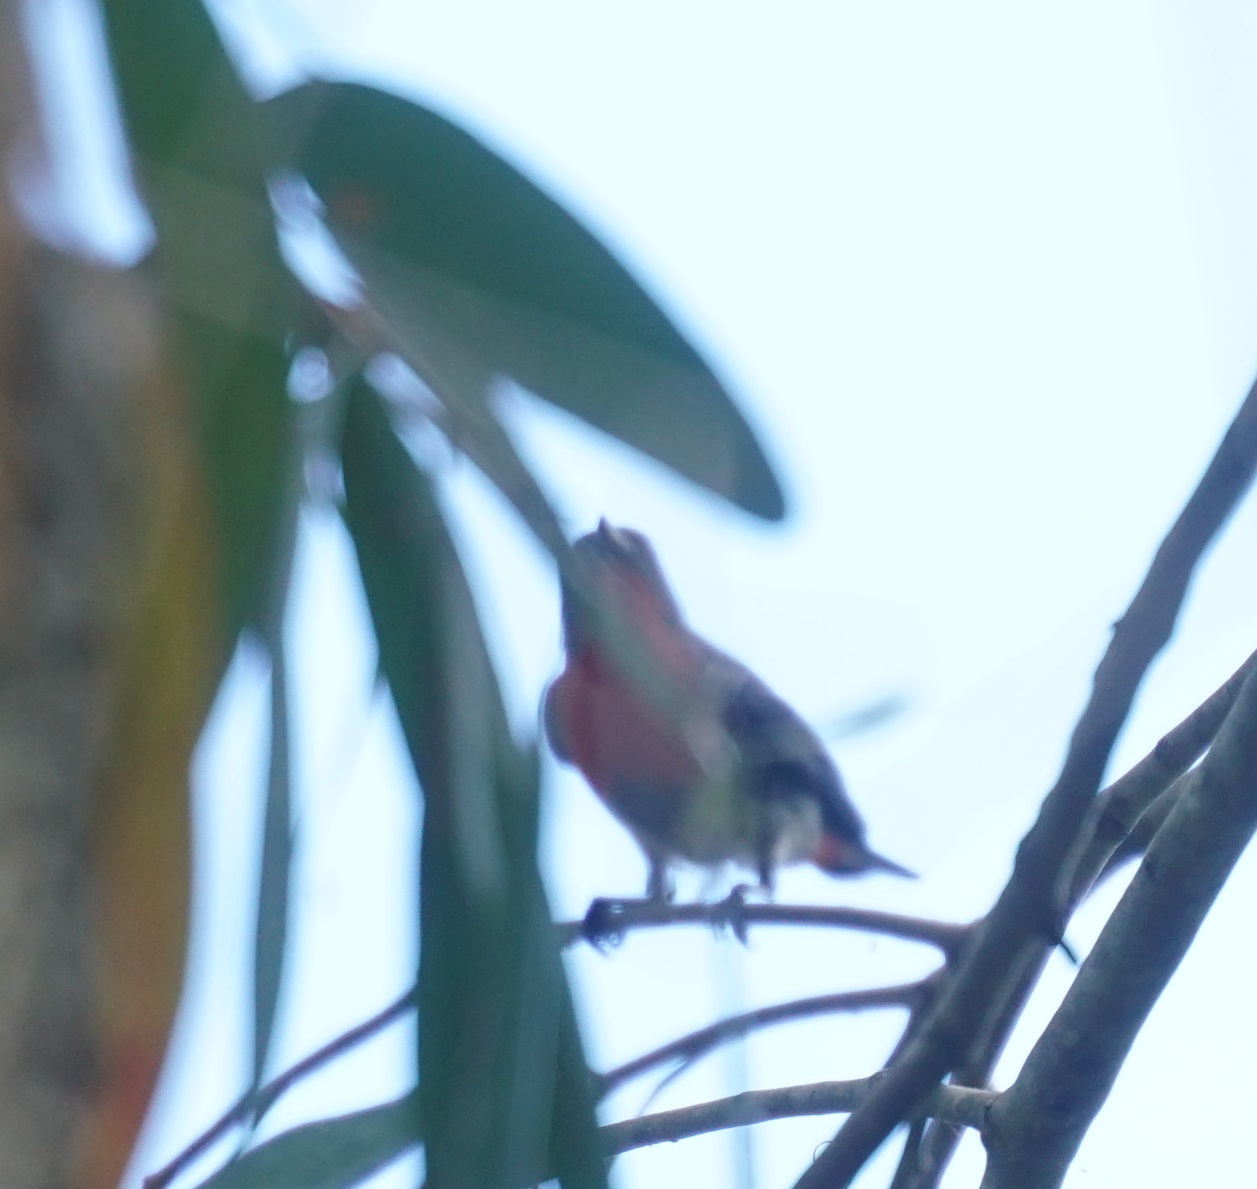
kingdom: Animalia
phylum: Chordata
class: Aves
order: Passeriformes
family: Dicaeidae
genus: Dicaeum
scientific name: Dicaeum hirundinaceum
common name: Mistletoebird
